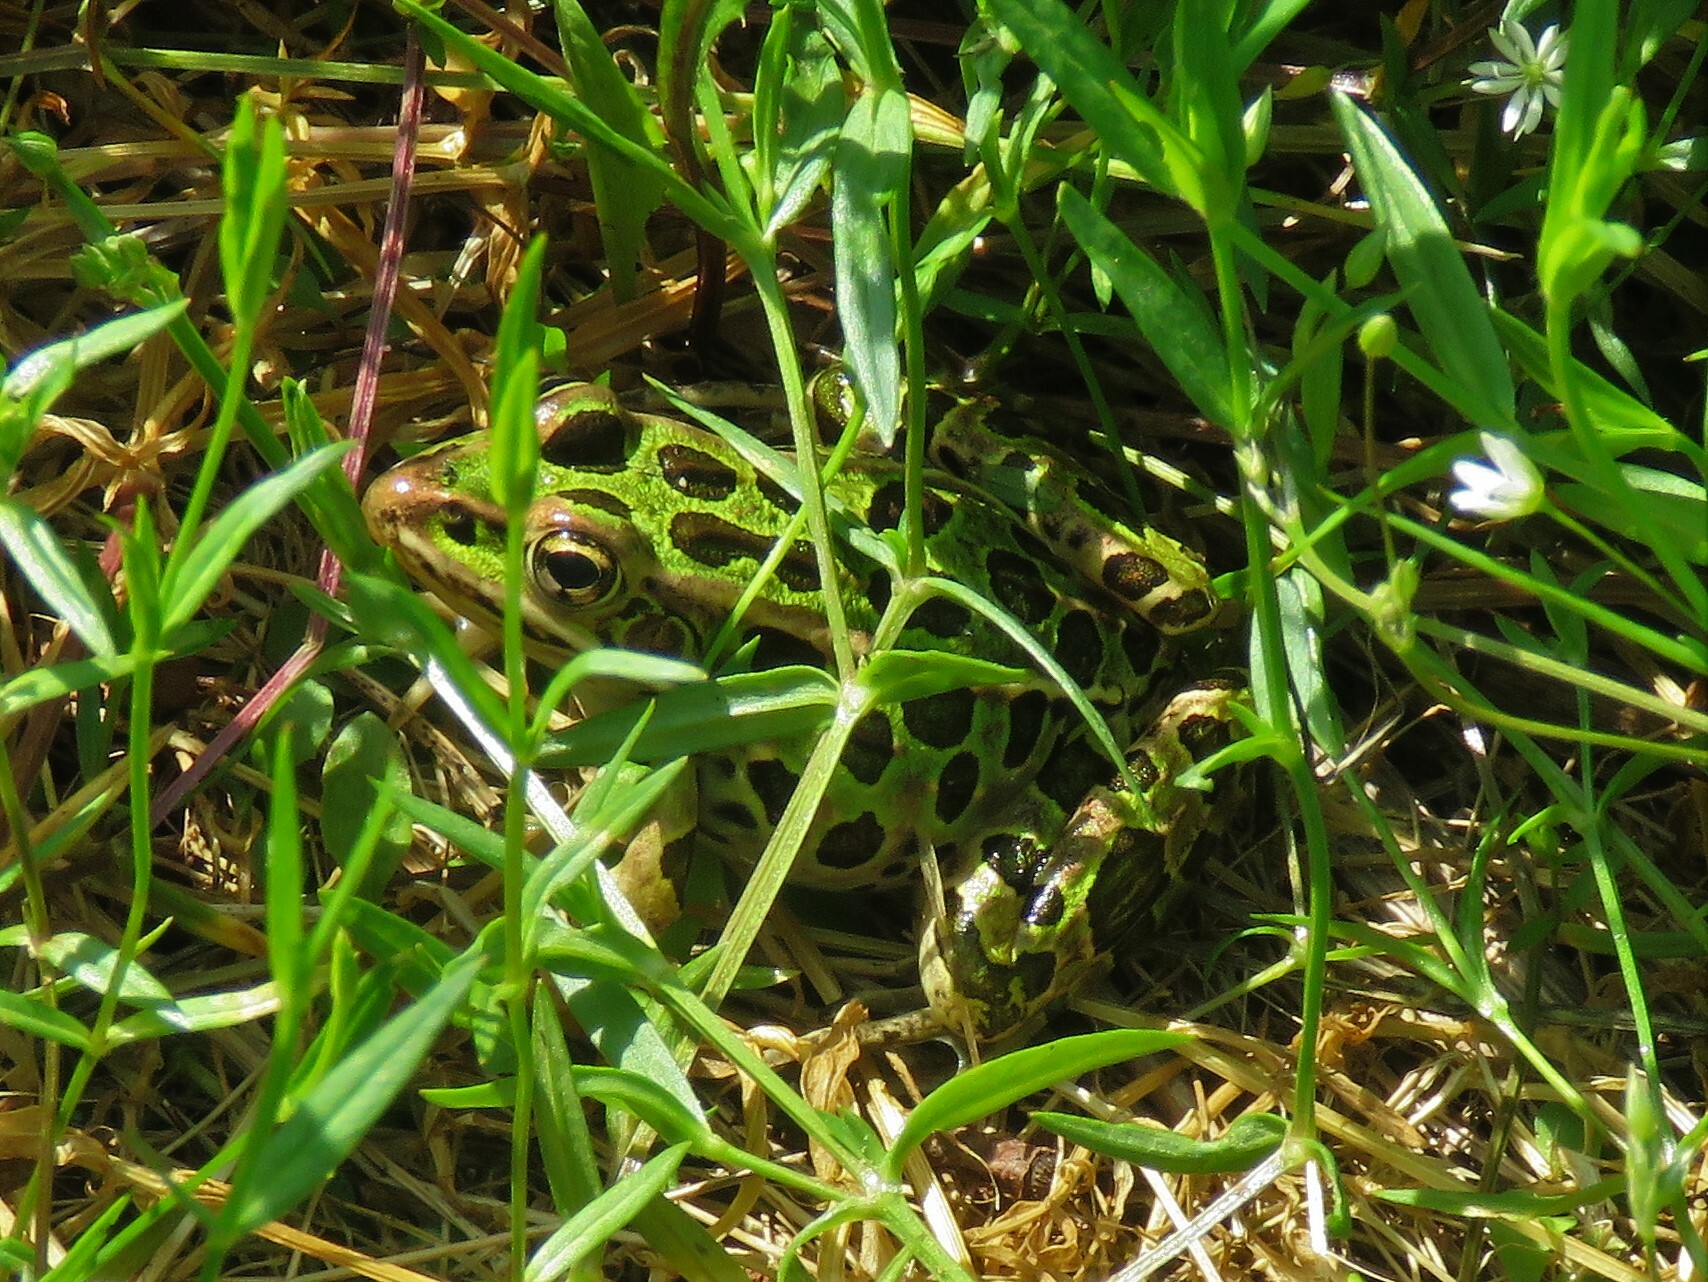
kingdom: Animalia
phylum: Chordata
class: Amphibia
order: Anura
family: Ranidae
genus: Lithobates
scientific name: Lithobates pipiens
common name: Northern leopard frog
